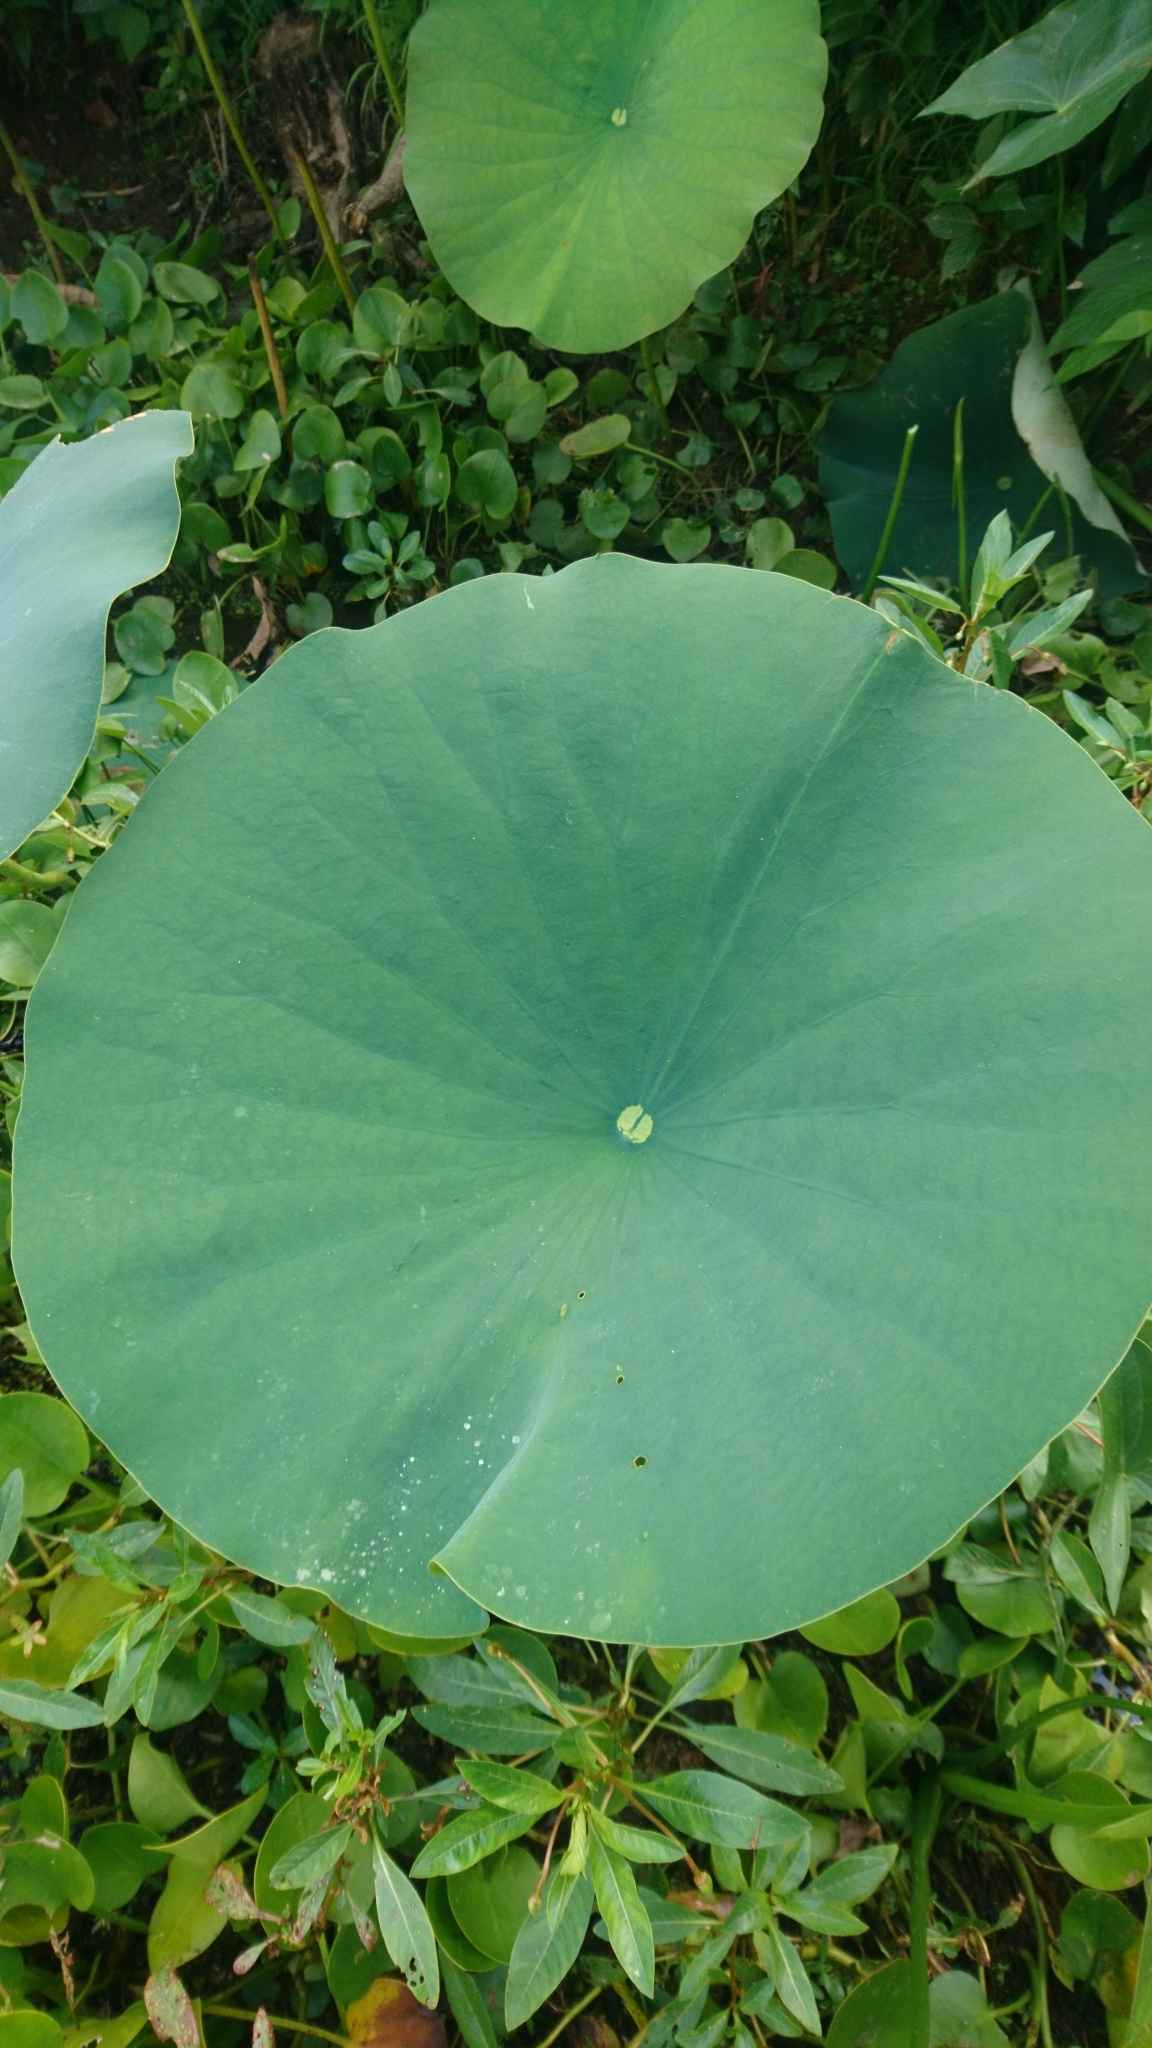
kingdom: Plantae
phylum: Tracheophyta
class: Magnoliopsida
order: Proteales
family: Nelumbonaceae
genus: Nelumbo
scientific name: Nelumbo lutea
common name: American lotus
